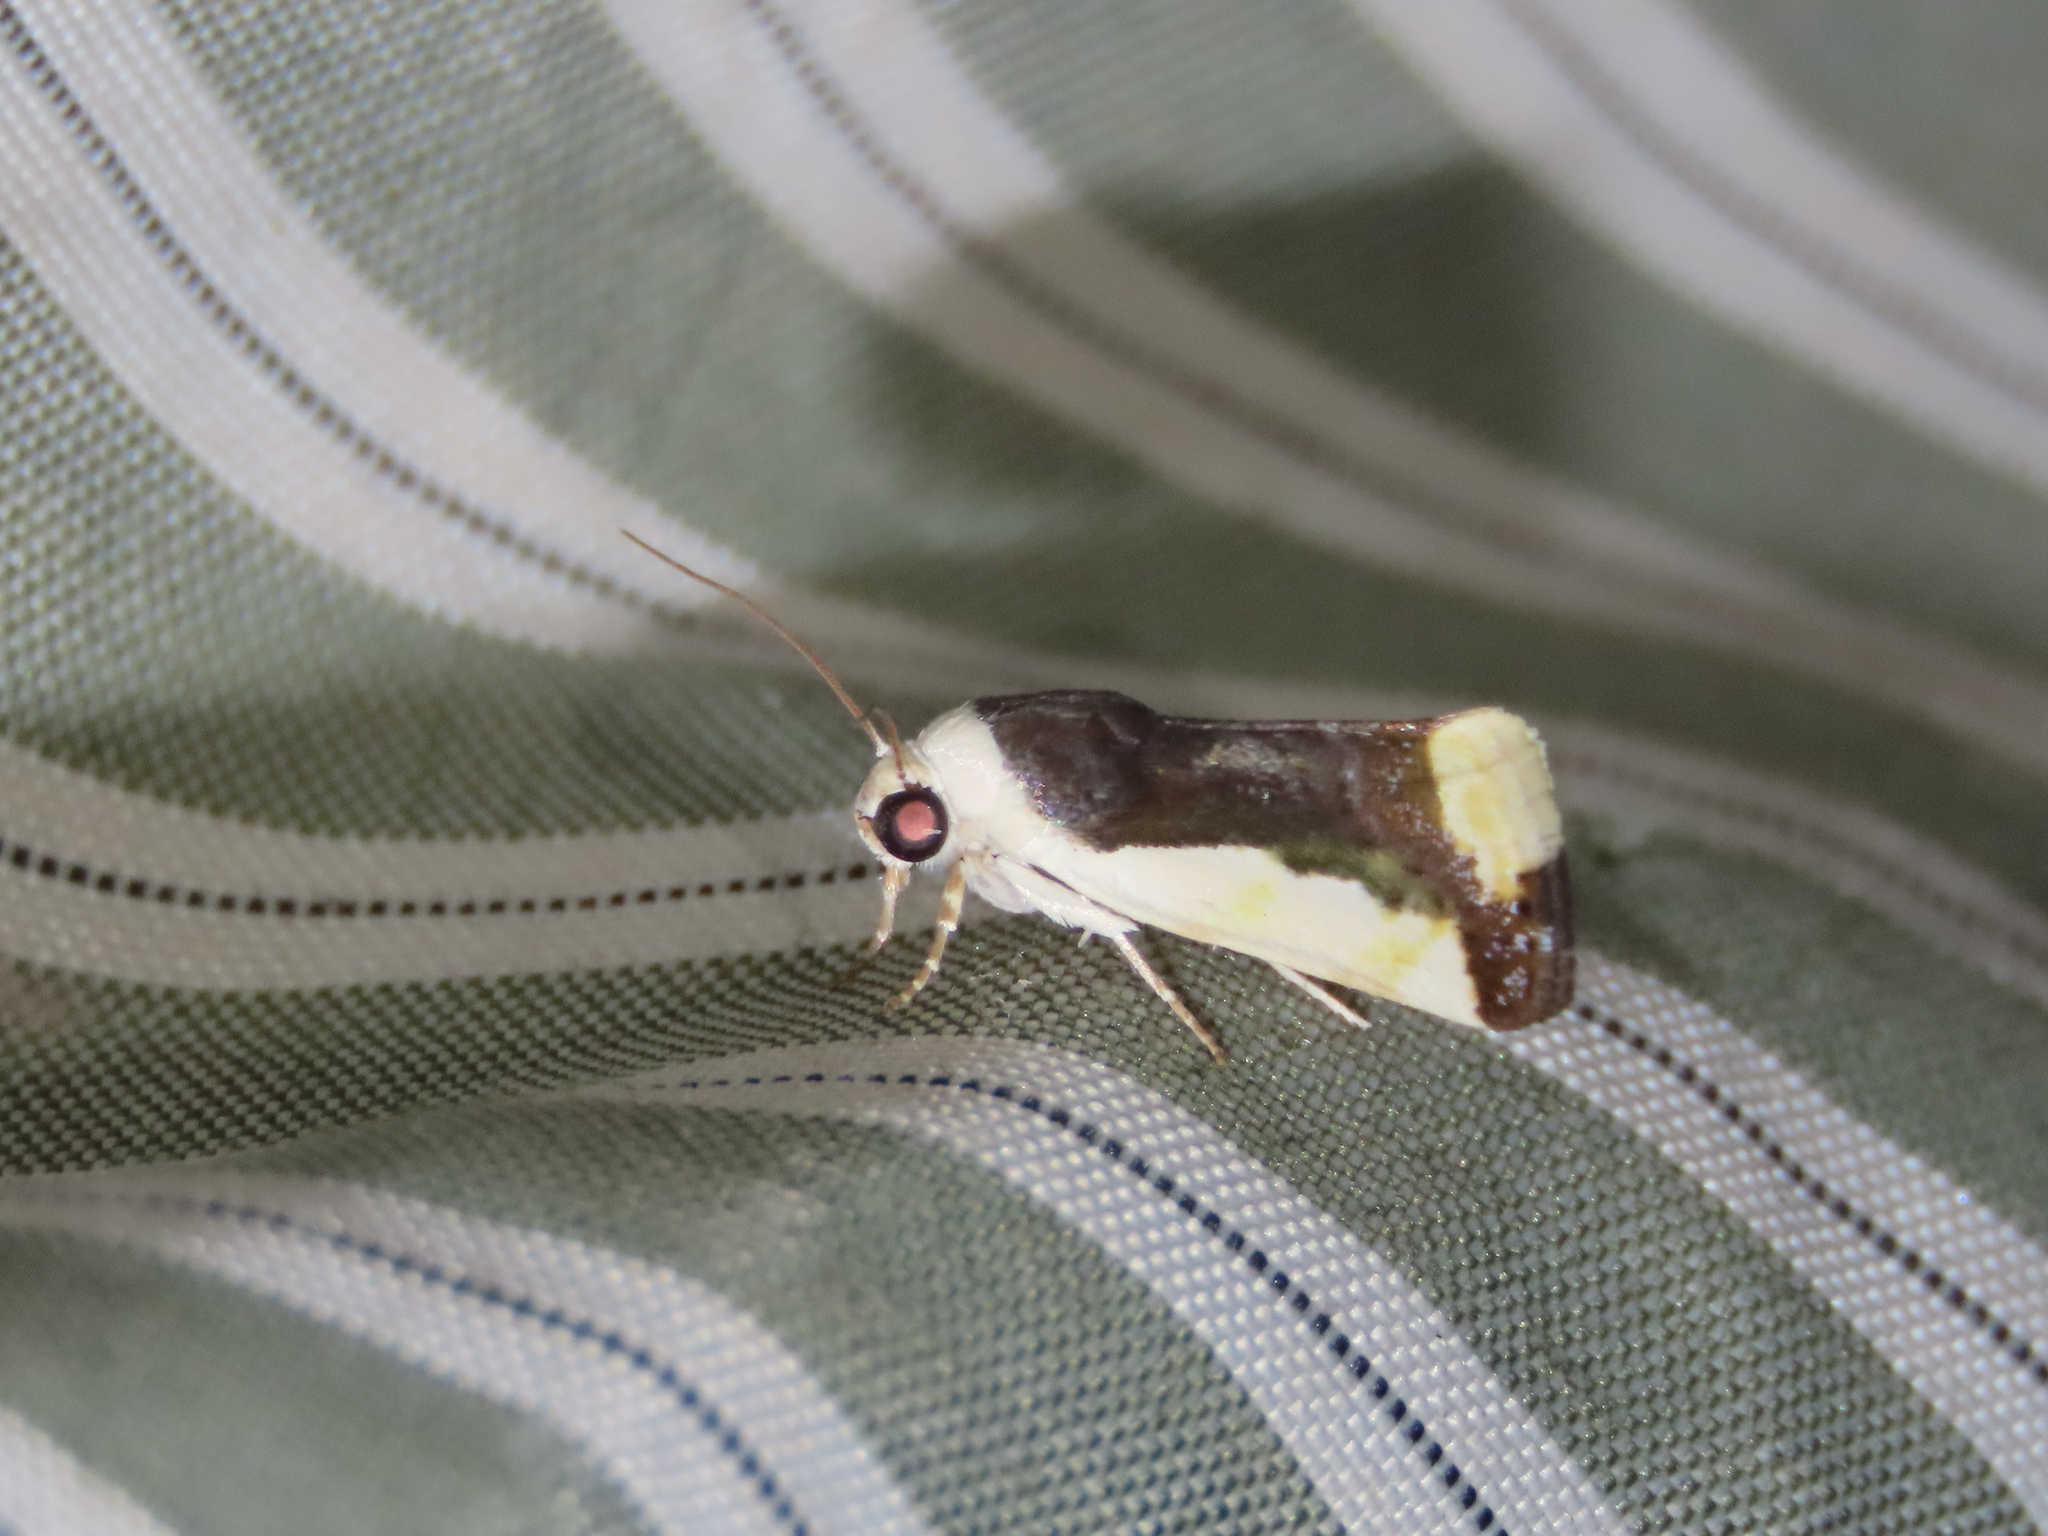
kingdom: Animalia
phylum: Arthropoda
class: Insecta
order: Lepidoptera
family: Noctuidae
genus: Acontia
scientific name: Acontia Tarache expolita
